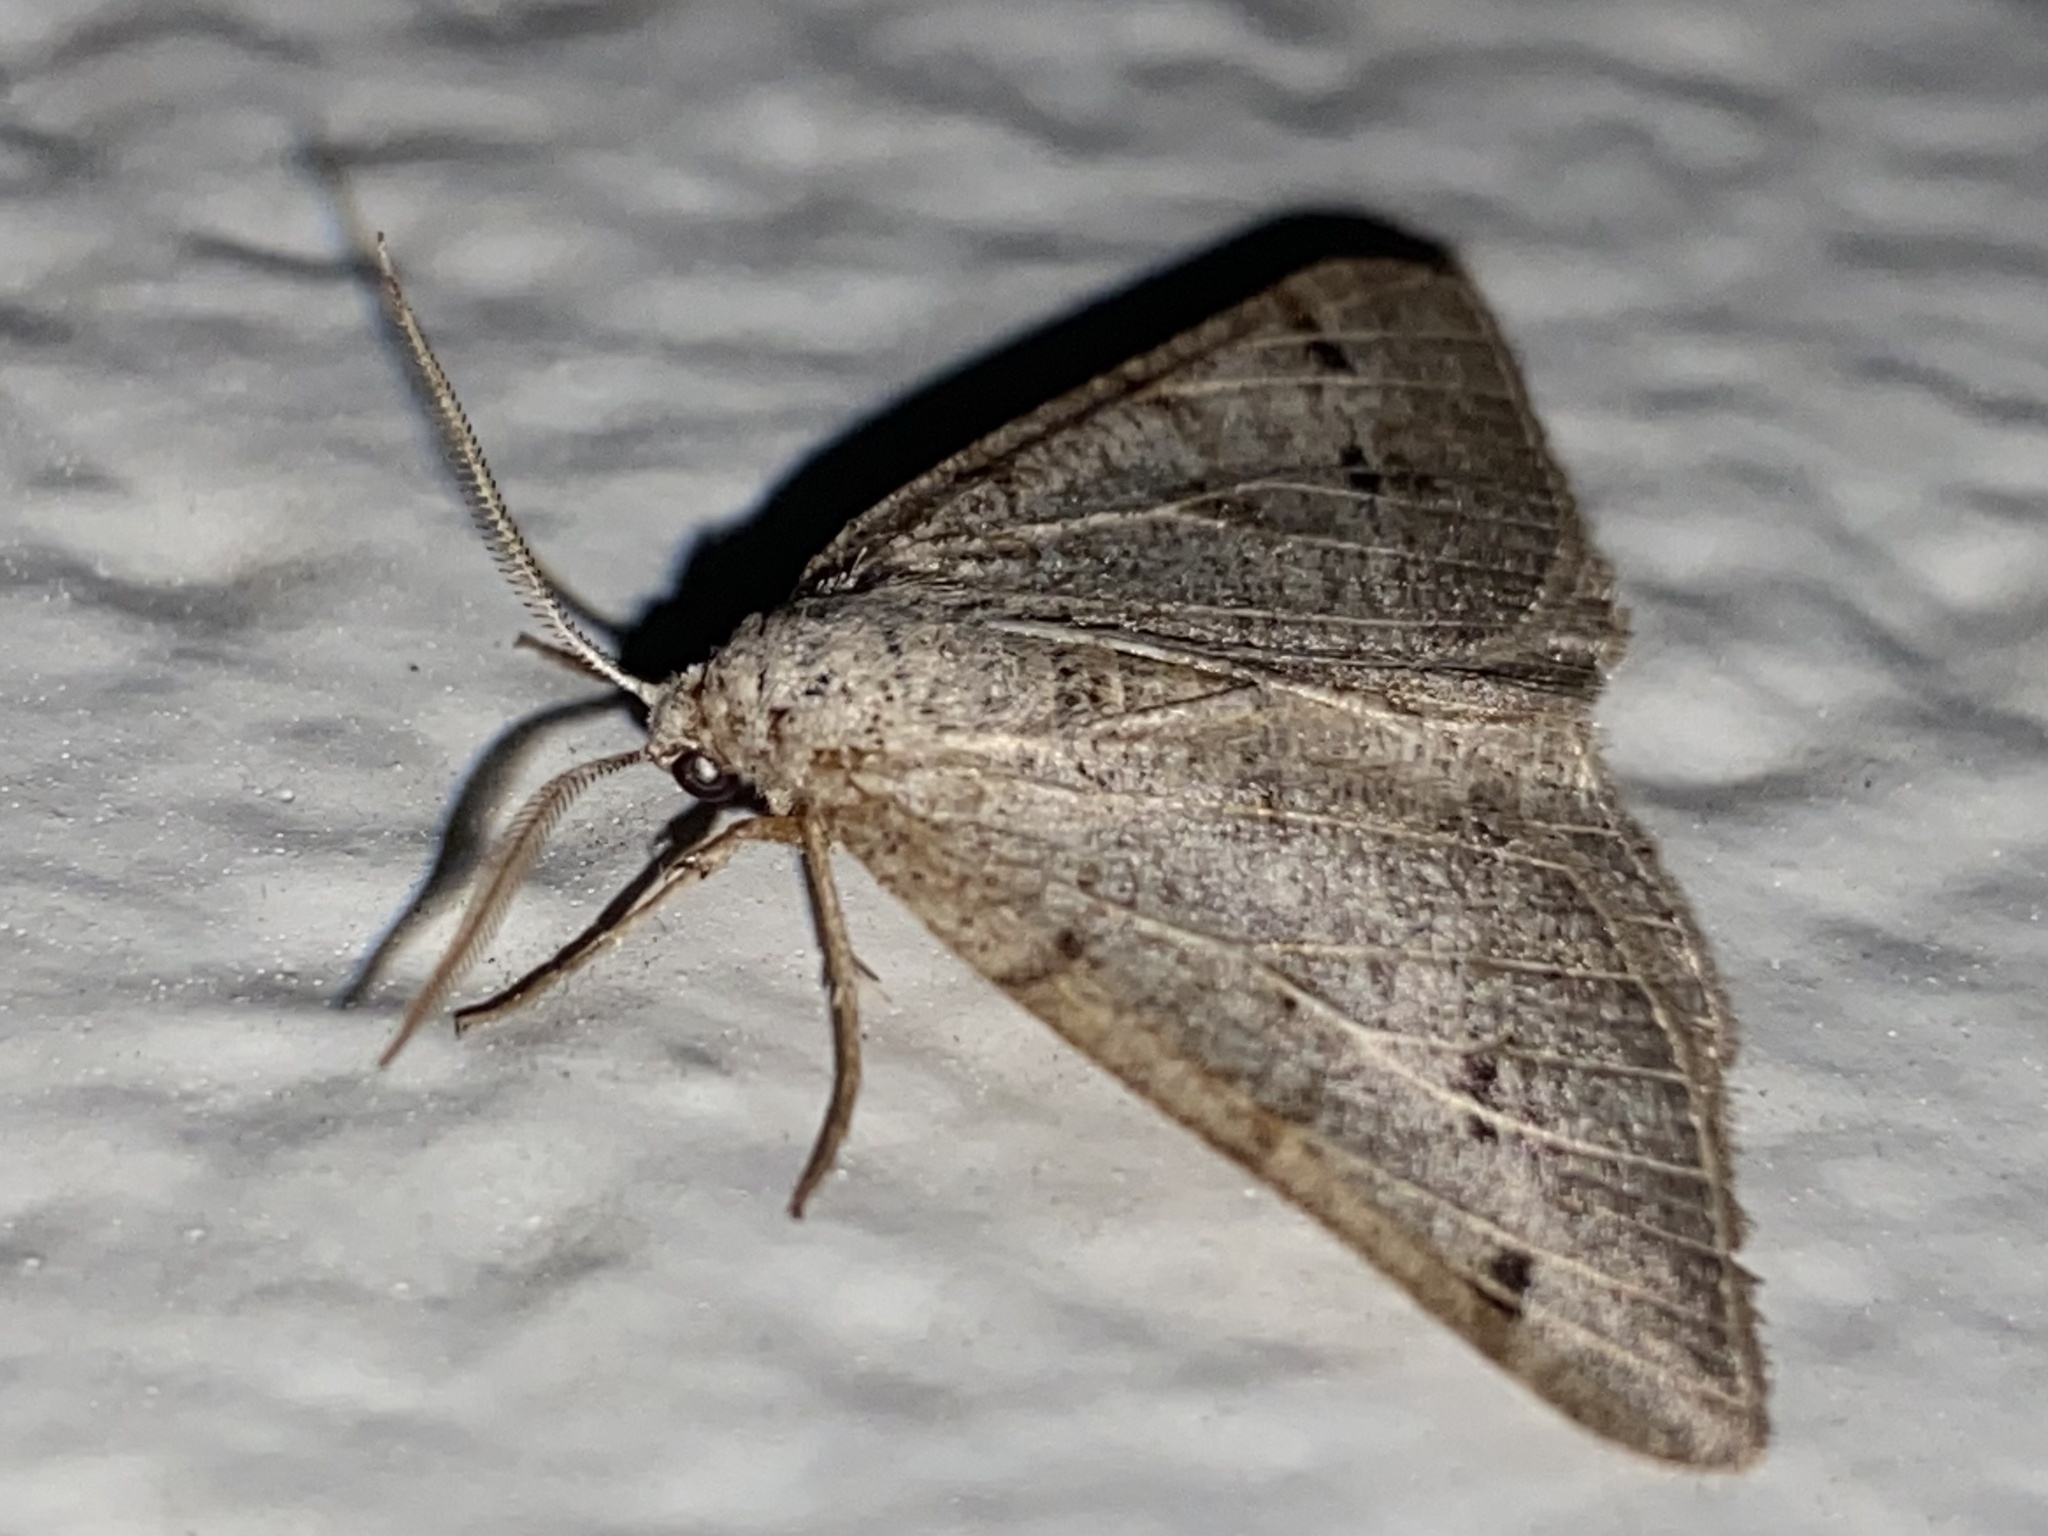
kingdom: Animalia
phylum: Arthropoda
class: Insecta
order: Lepidoptera
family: Geometridae
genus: Isturgia
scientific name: Isturgia dislocaria
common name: Pale-viened enconista
